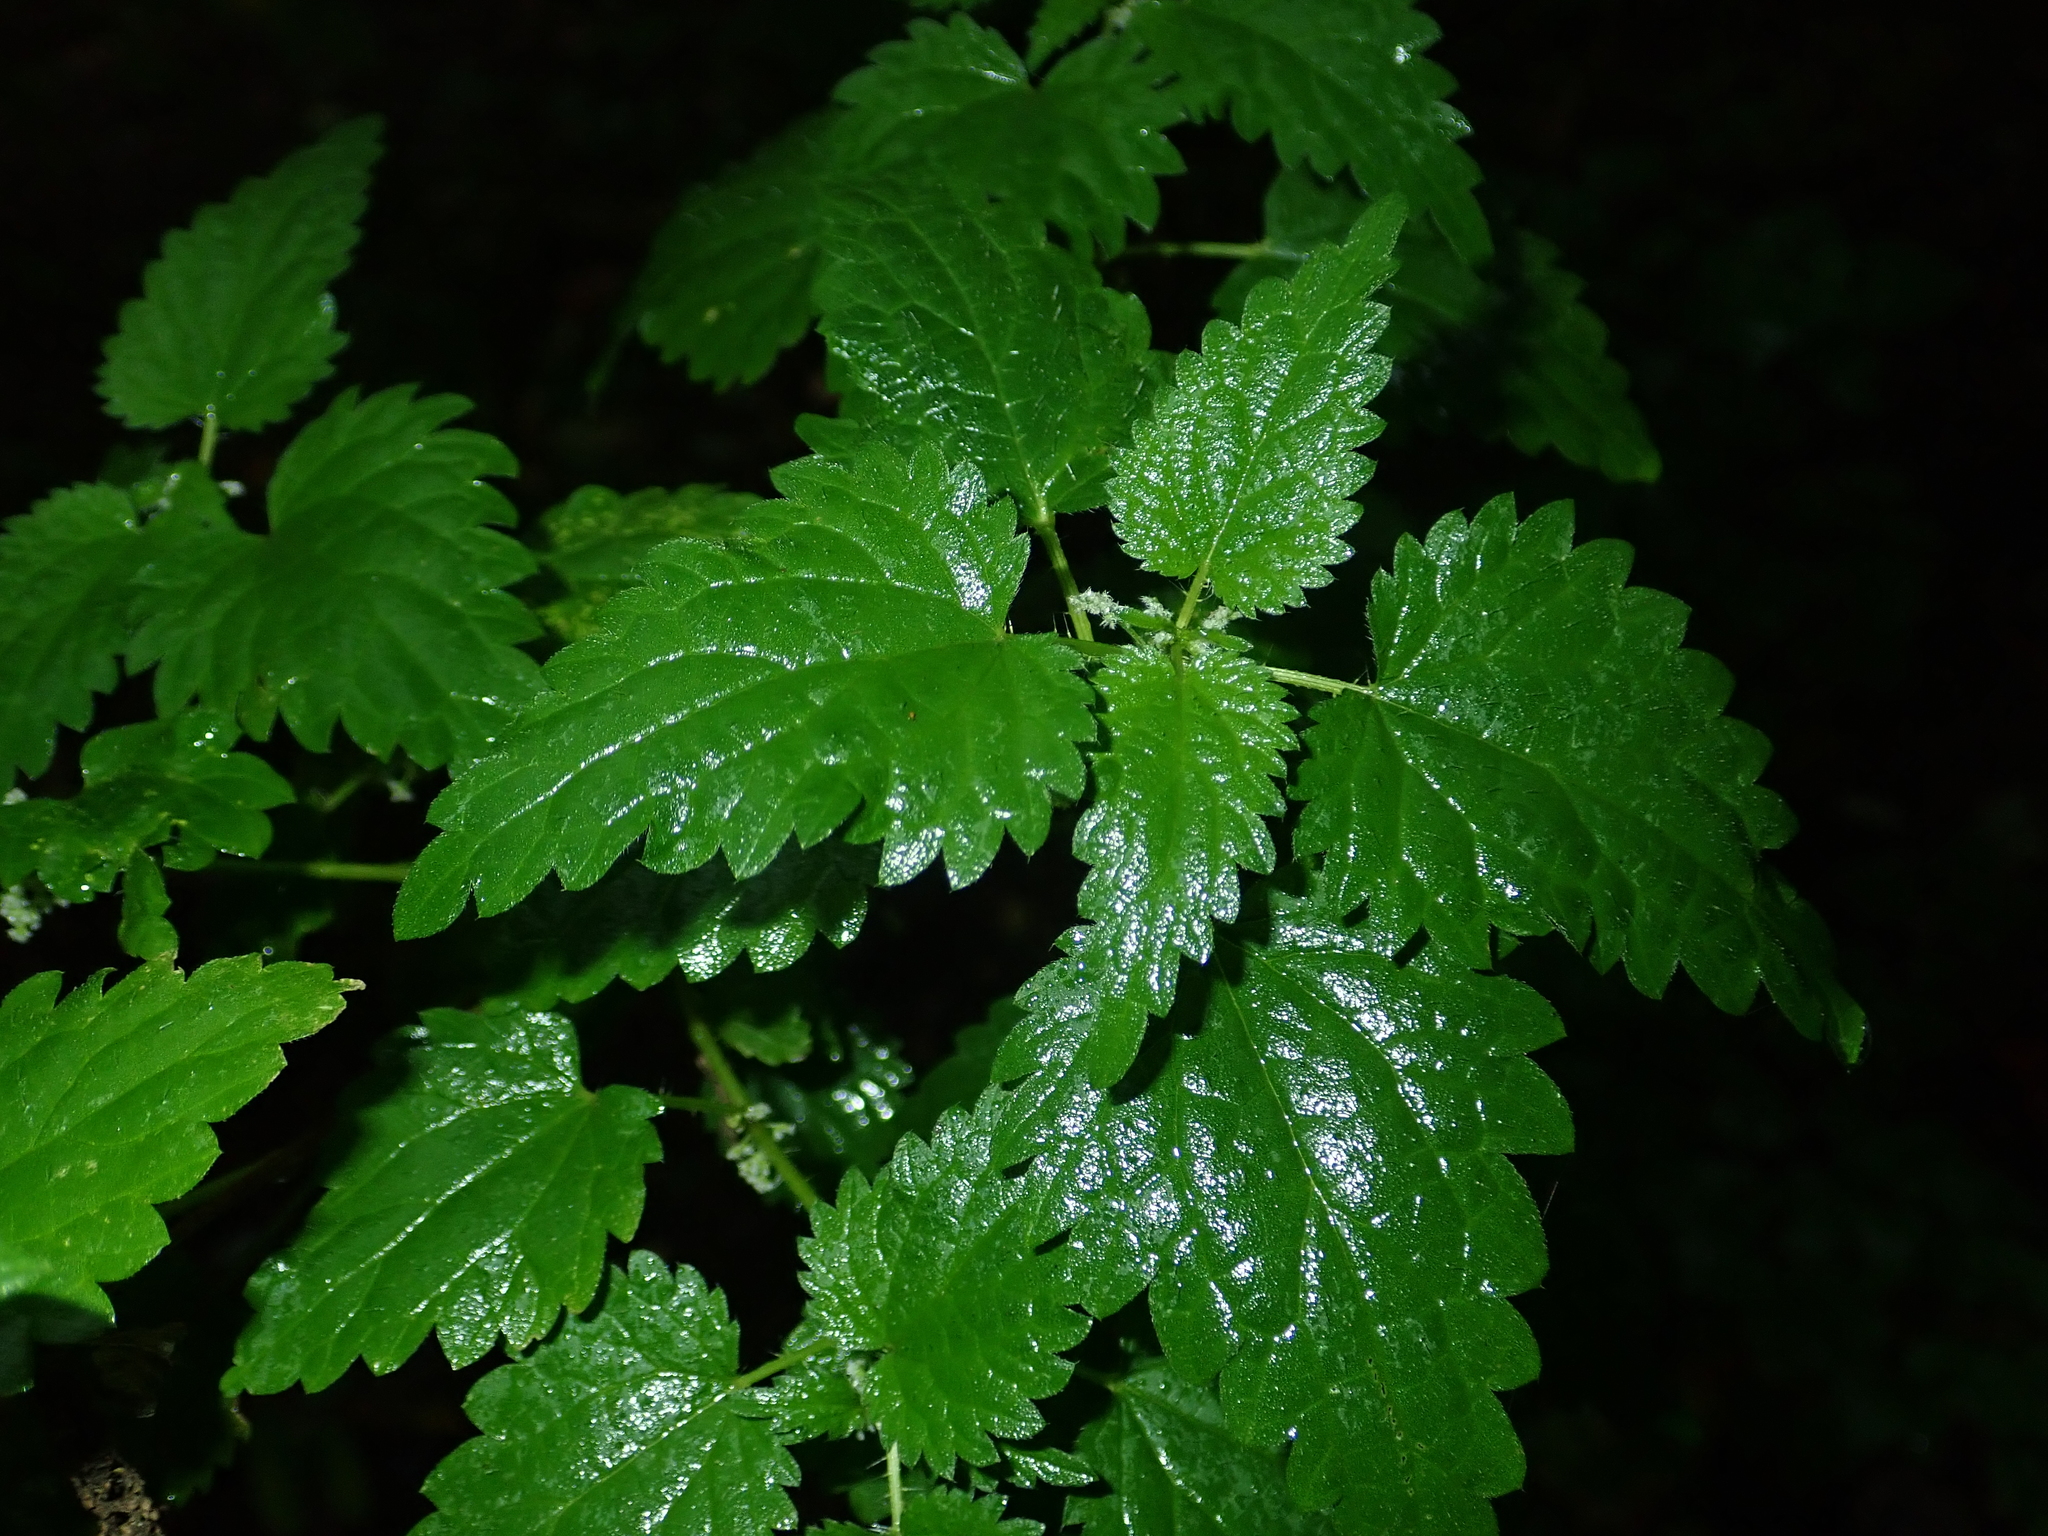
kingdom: Plantae
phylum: Tracheophyta
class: Magnoliopsida
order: Rosales
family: Urticaceae
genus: Urtica
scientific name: Urtica dioica
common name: Common nettle
